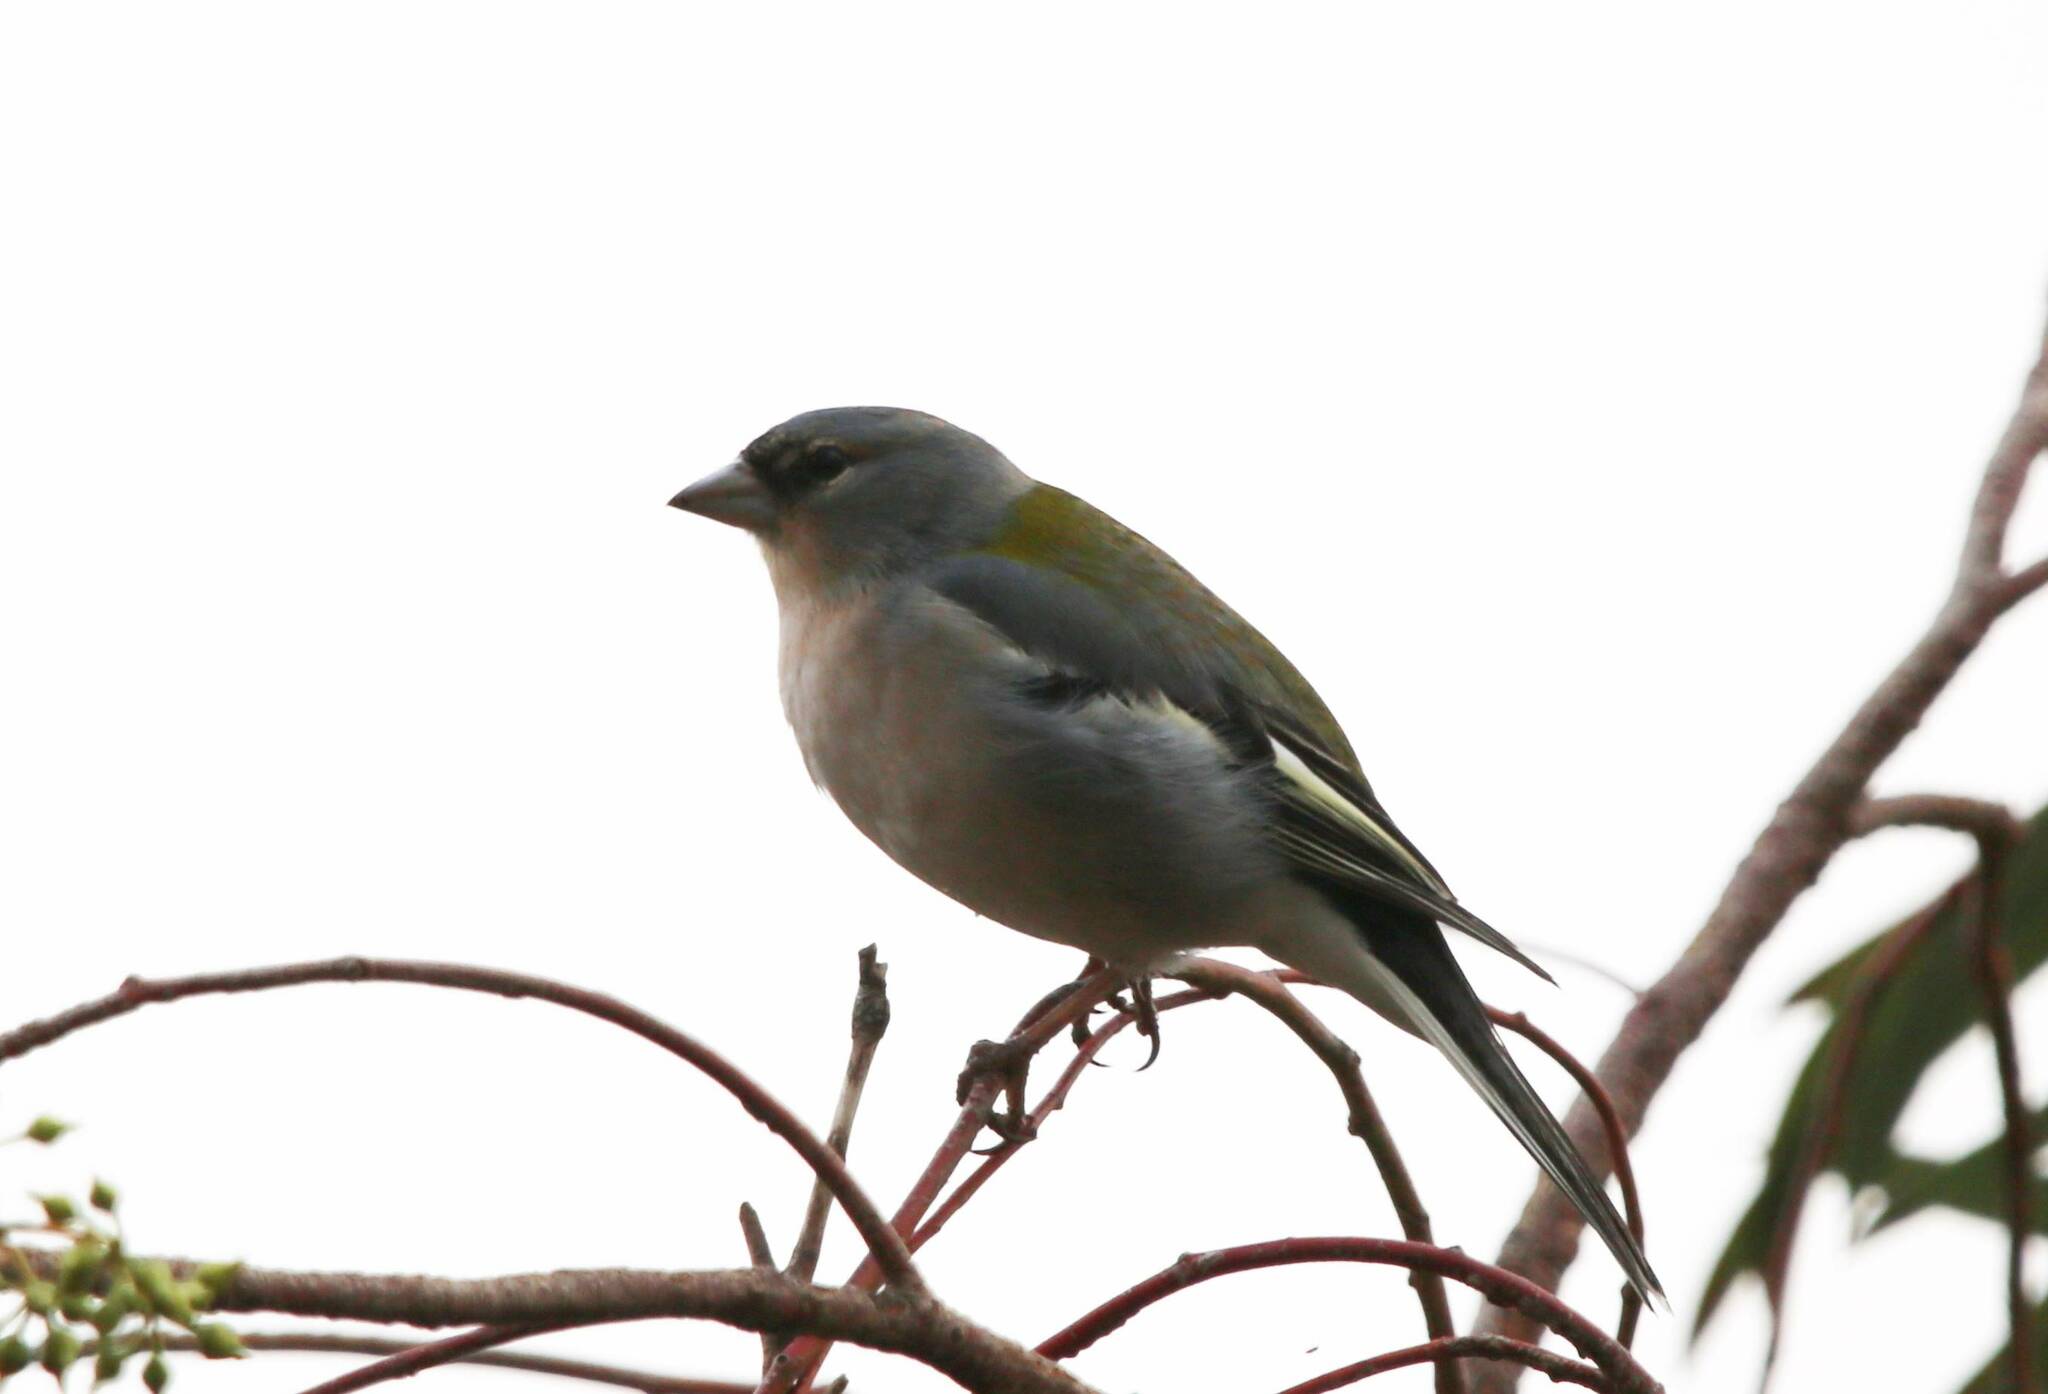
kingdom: Animalia
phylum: Chordata
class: Aves
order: Passeriformes
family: Fringillidae
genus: Fringilla
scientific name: Fringilla spodiogenys
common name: African chaffinch
